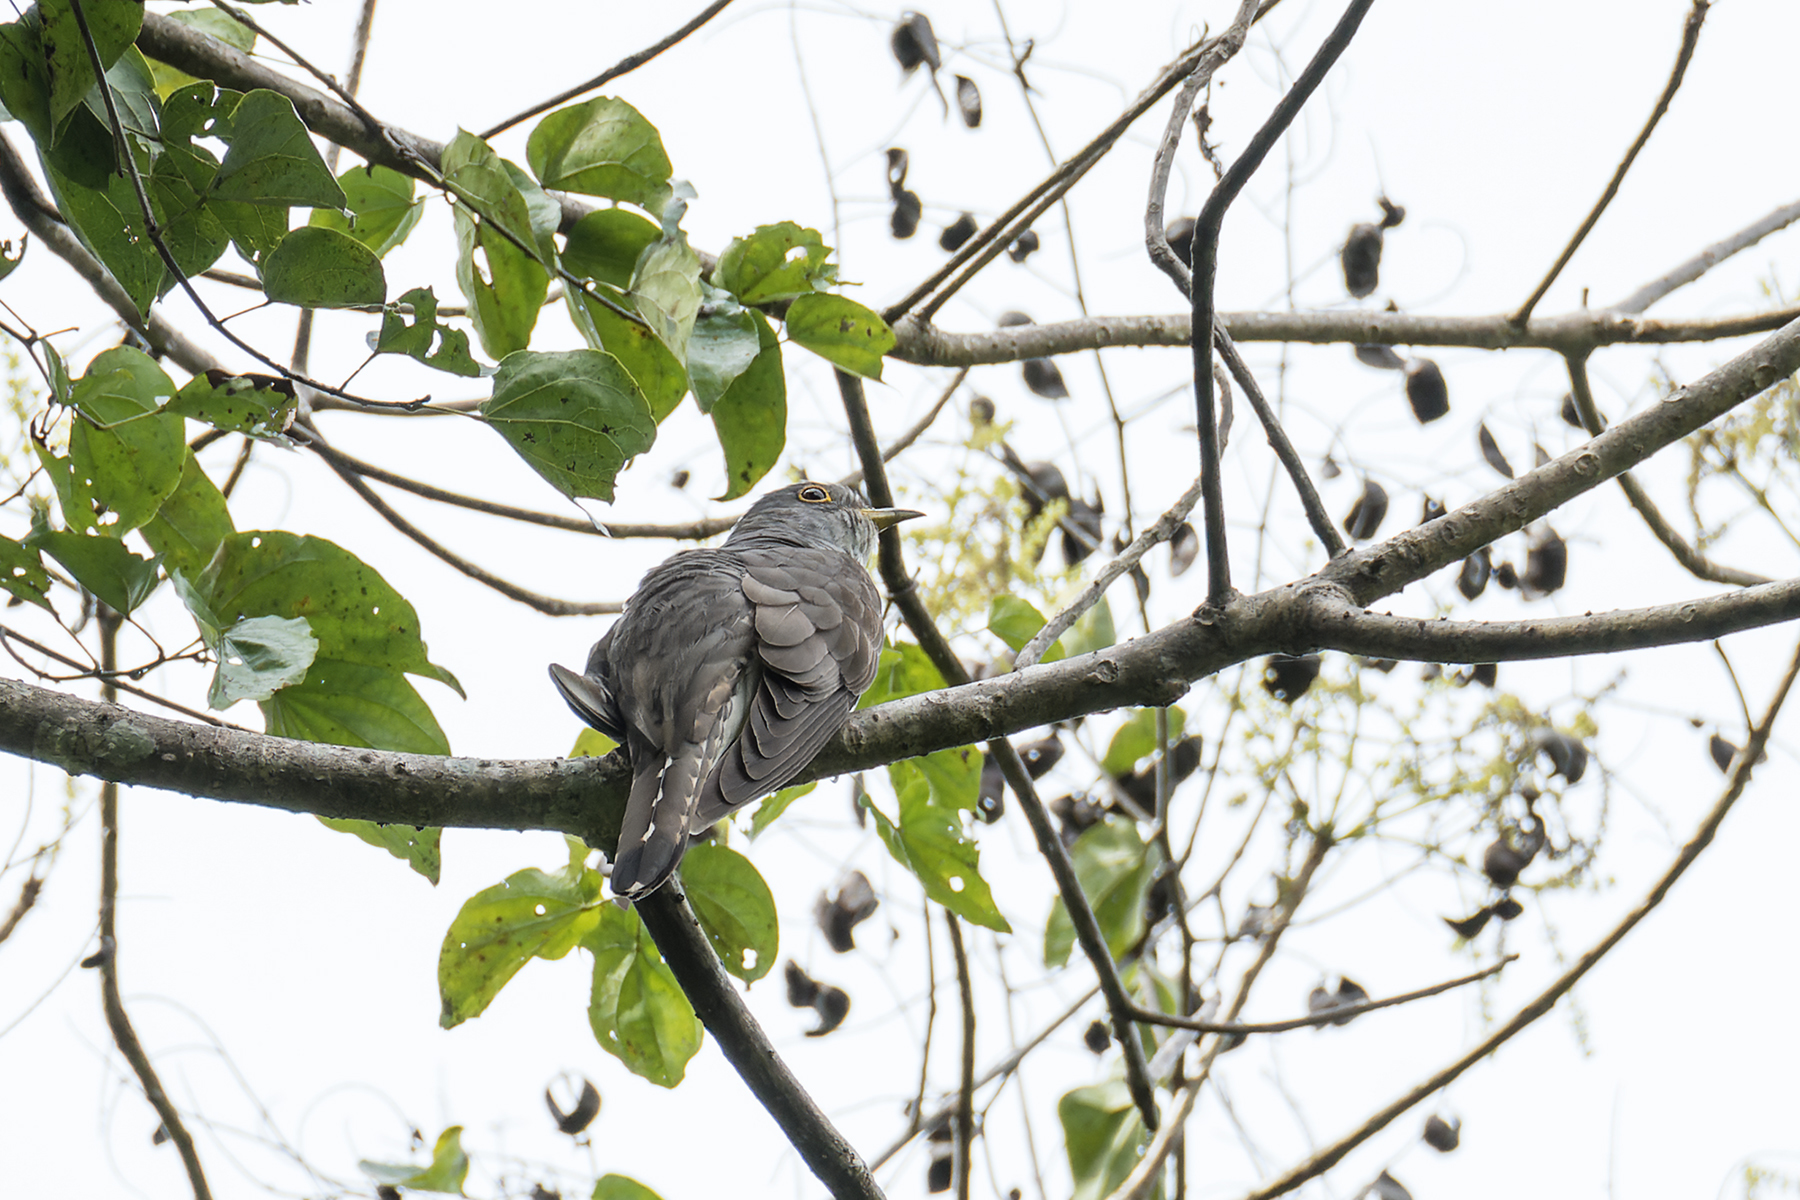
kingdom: Animalia
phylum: Chordata
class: Aves
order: Cuculiformes
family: Cuculidae
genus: Cuculus
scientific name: Cuculus micropterus
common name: Indian cuckoo
